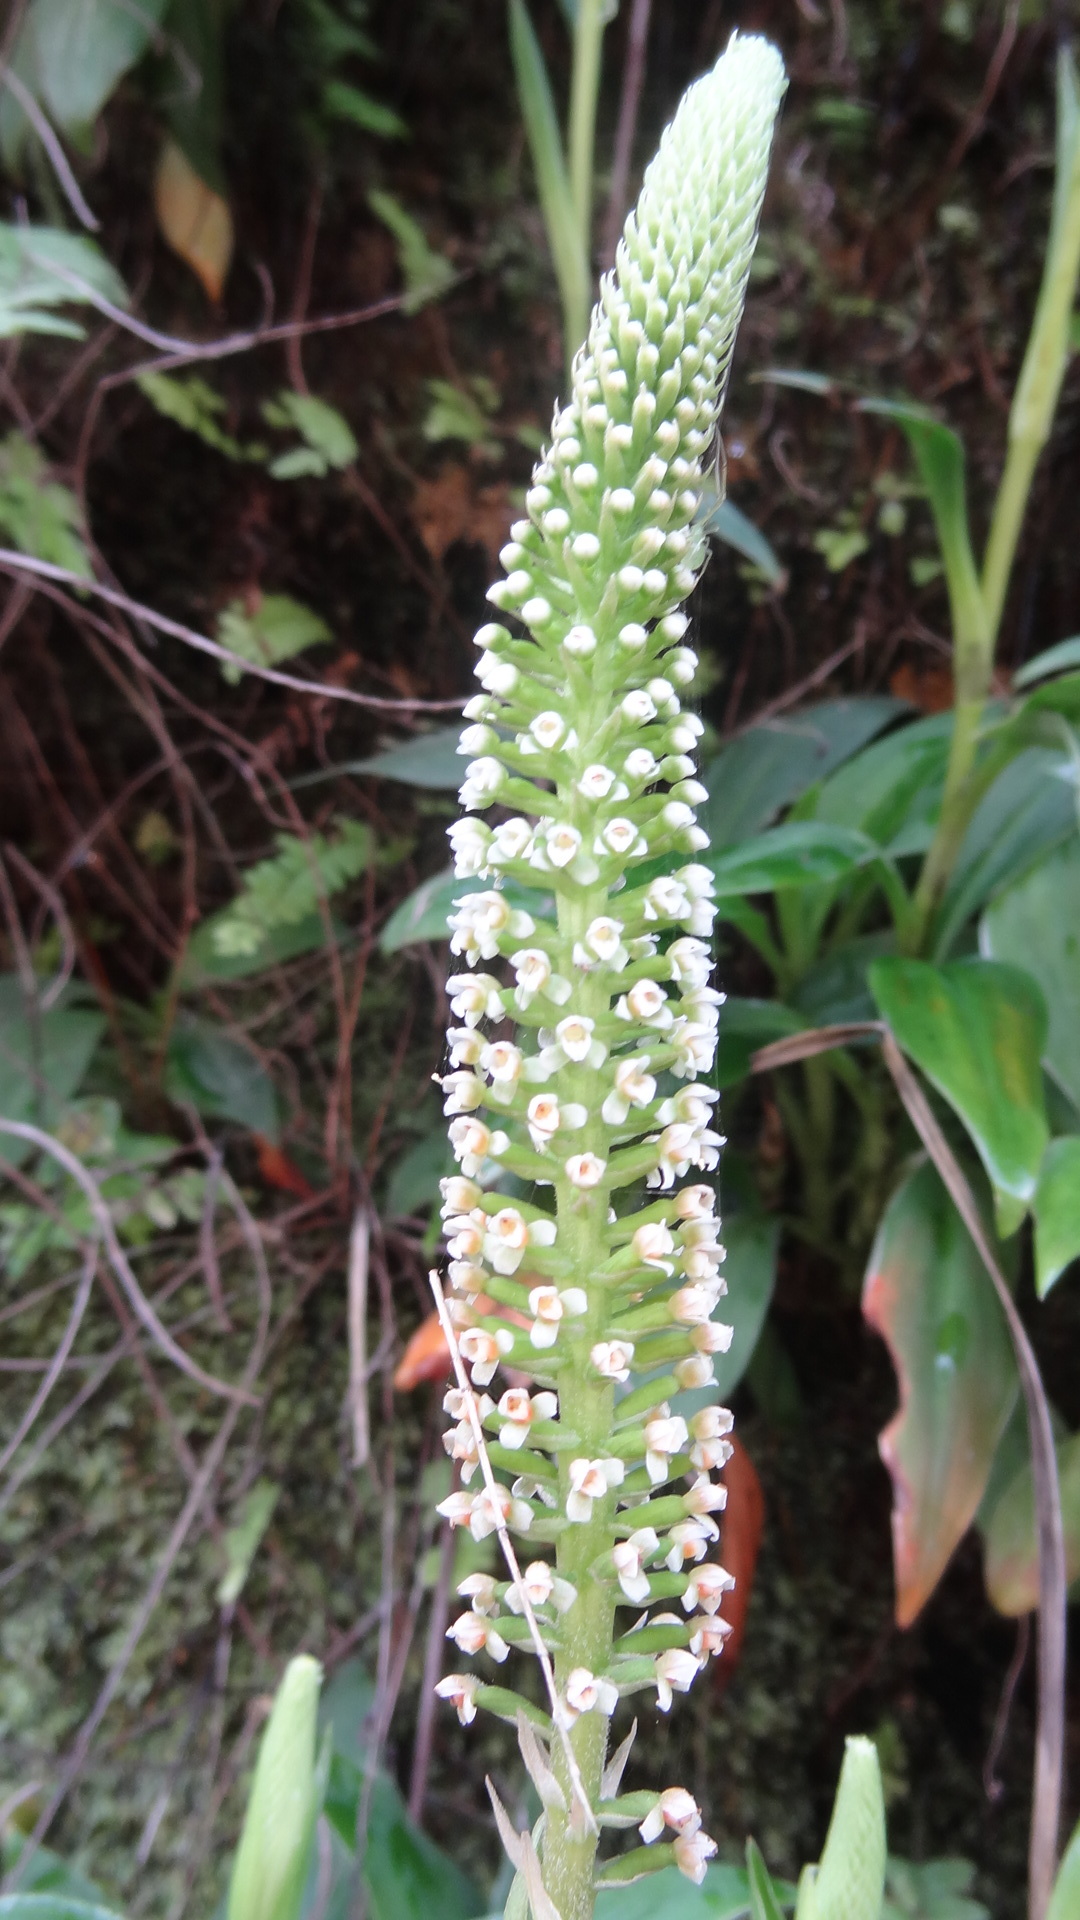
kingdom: Plantae
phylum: Tracheophyta
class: Liliopsida
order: Asparagales
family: Orchidaceae
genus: Goodyera
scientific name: Goodyera procera
